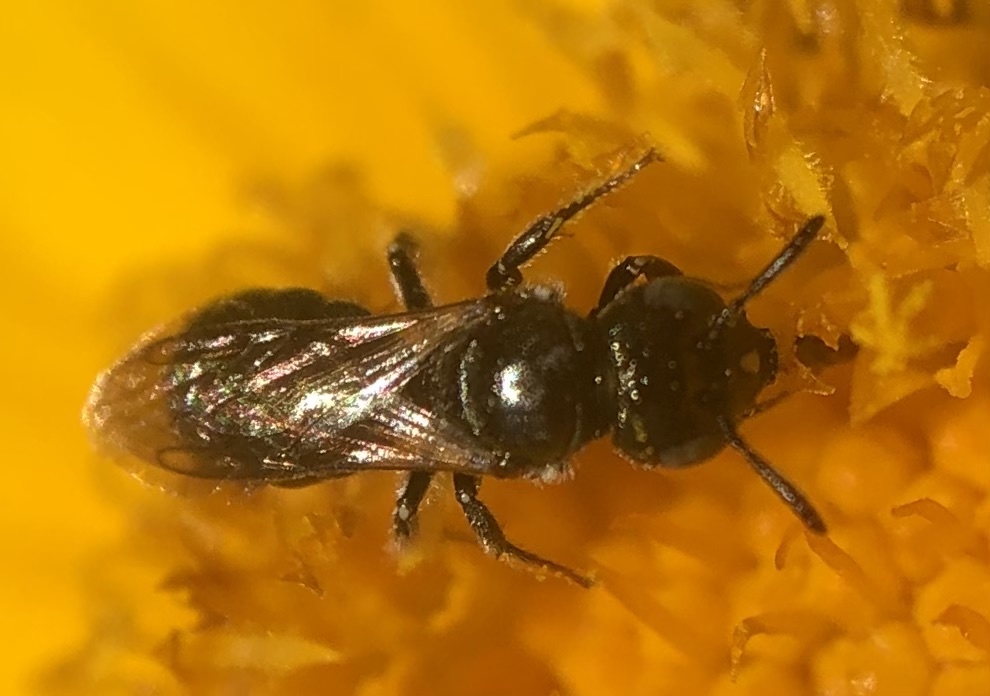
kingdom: Animalia
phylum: Arthropoda
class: Insecta
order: Hymenoptera
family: Apidae
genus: Ceratina
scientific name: Ceratina strenua
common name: Nimble carpenter bee
